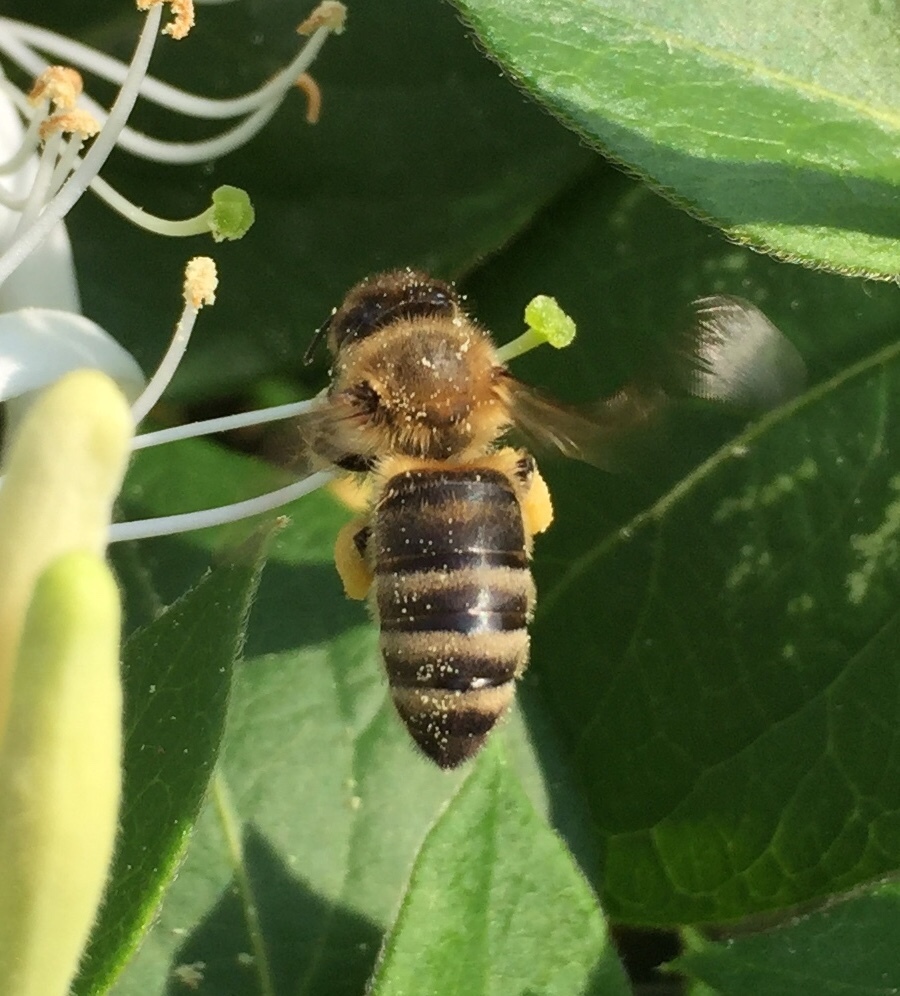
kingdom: Animalia
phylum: Arthropoda
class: Insecta
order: Hymenoptera
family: Apidae
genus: Apis
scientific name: Apis mellifera
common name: Honey bee
